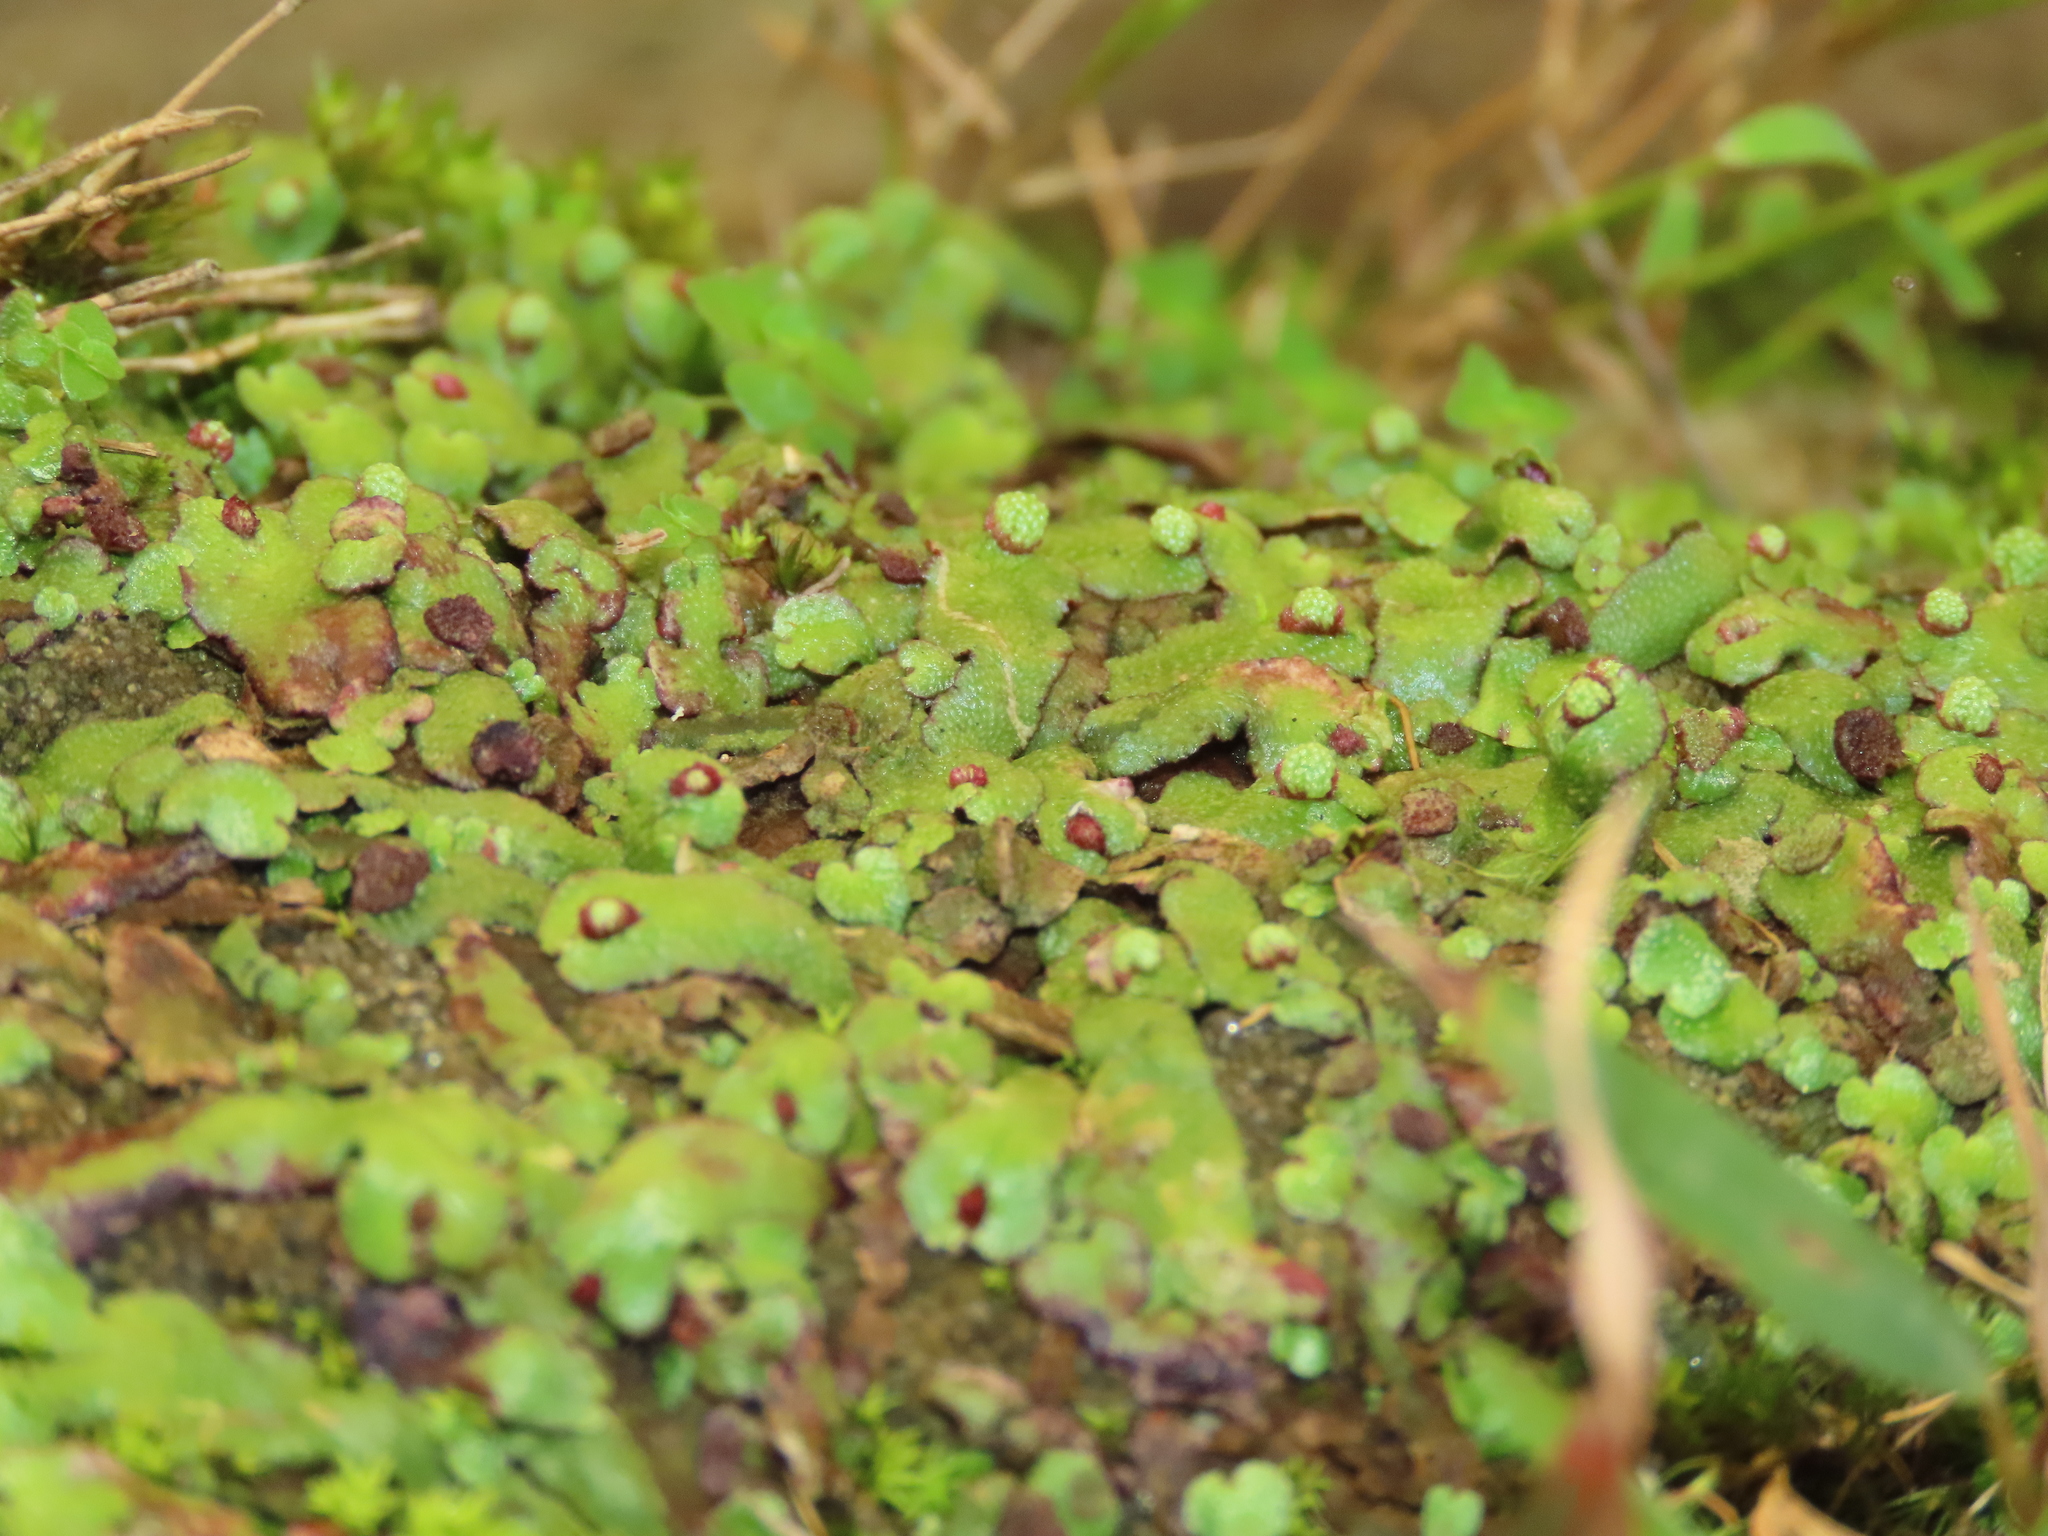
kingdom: Plantae
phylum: Marchantiophyta
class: Marchantiopsida
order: Marchantiales
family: Aytoniaceae
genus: Reboulia
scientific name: Reboulia hemisphaerica
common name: Purple-margined liverwort
